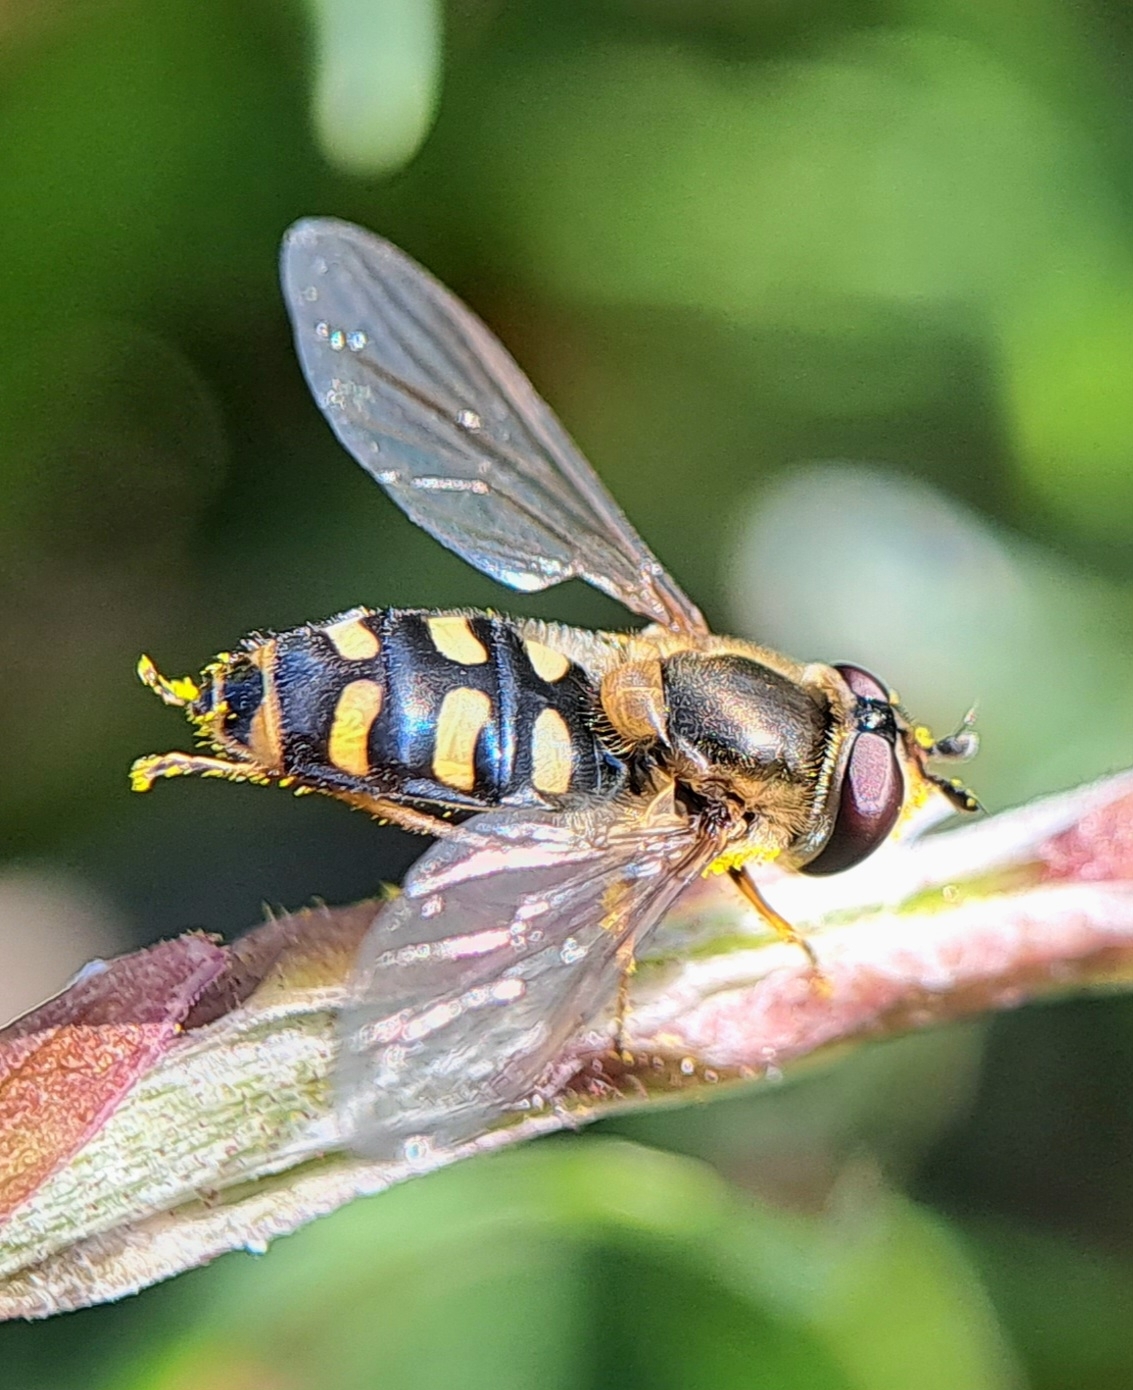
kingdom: Animalia
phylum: Arthropoda
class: Insecta
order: Diptera
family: Syrphidae
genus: Eupeodes
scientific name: Eupeodes
